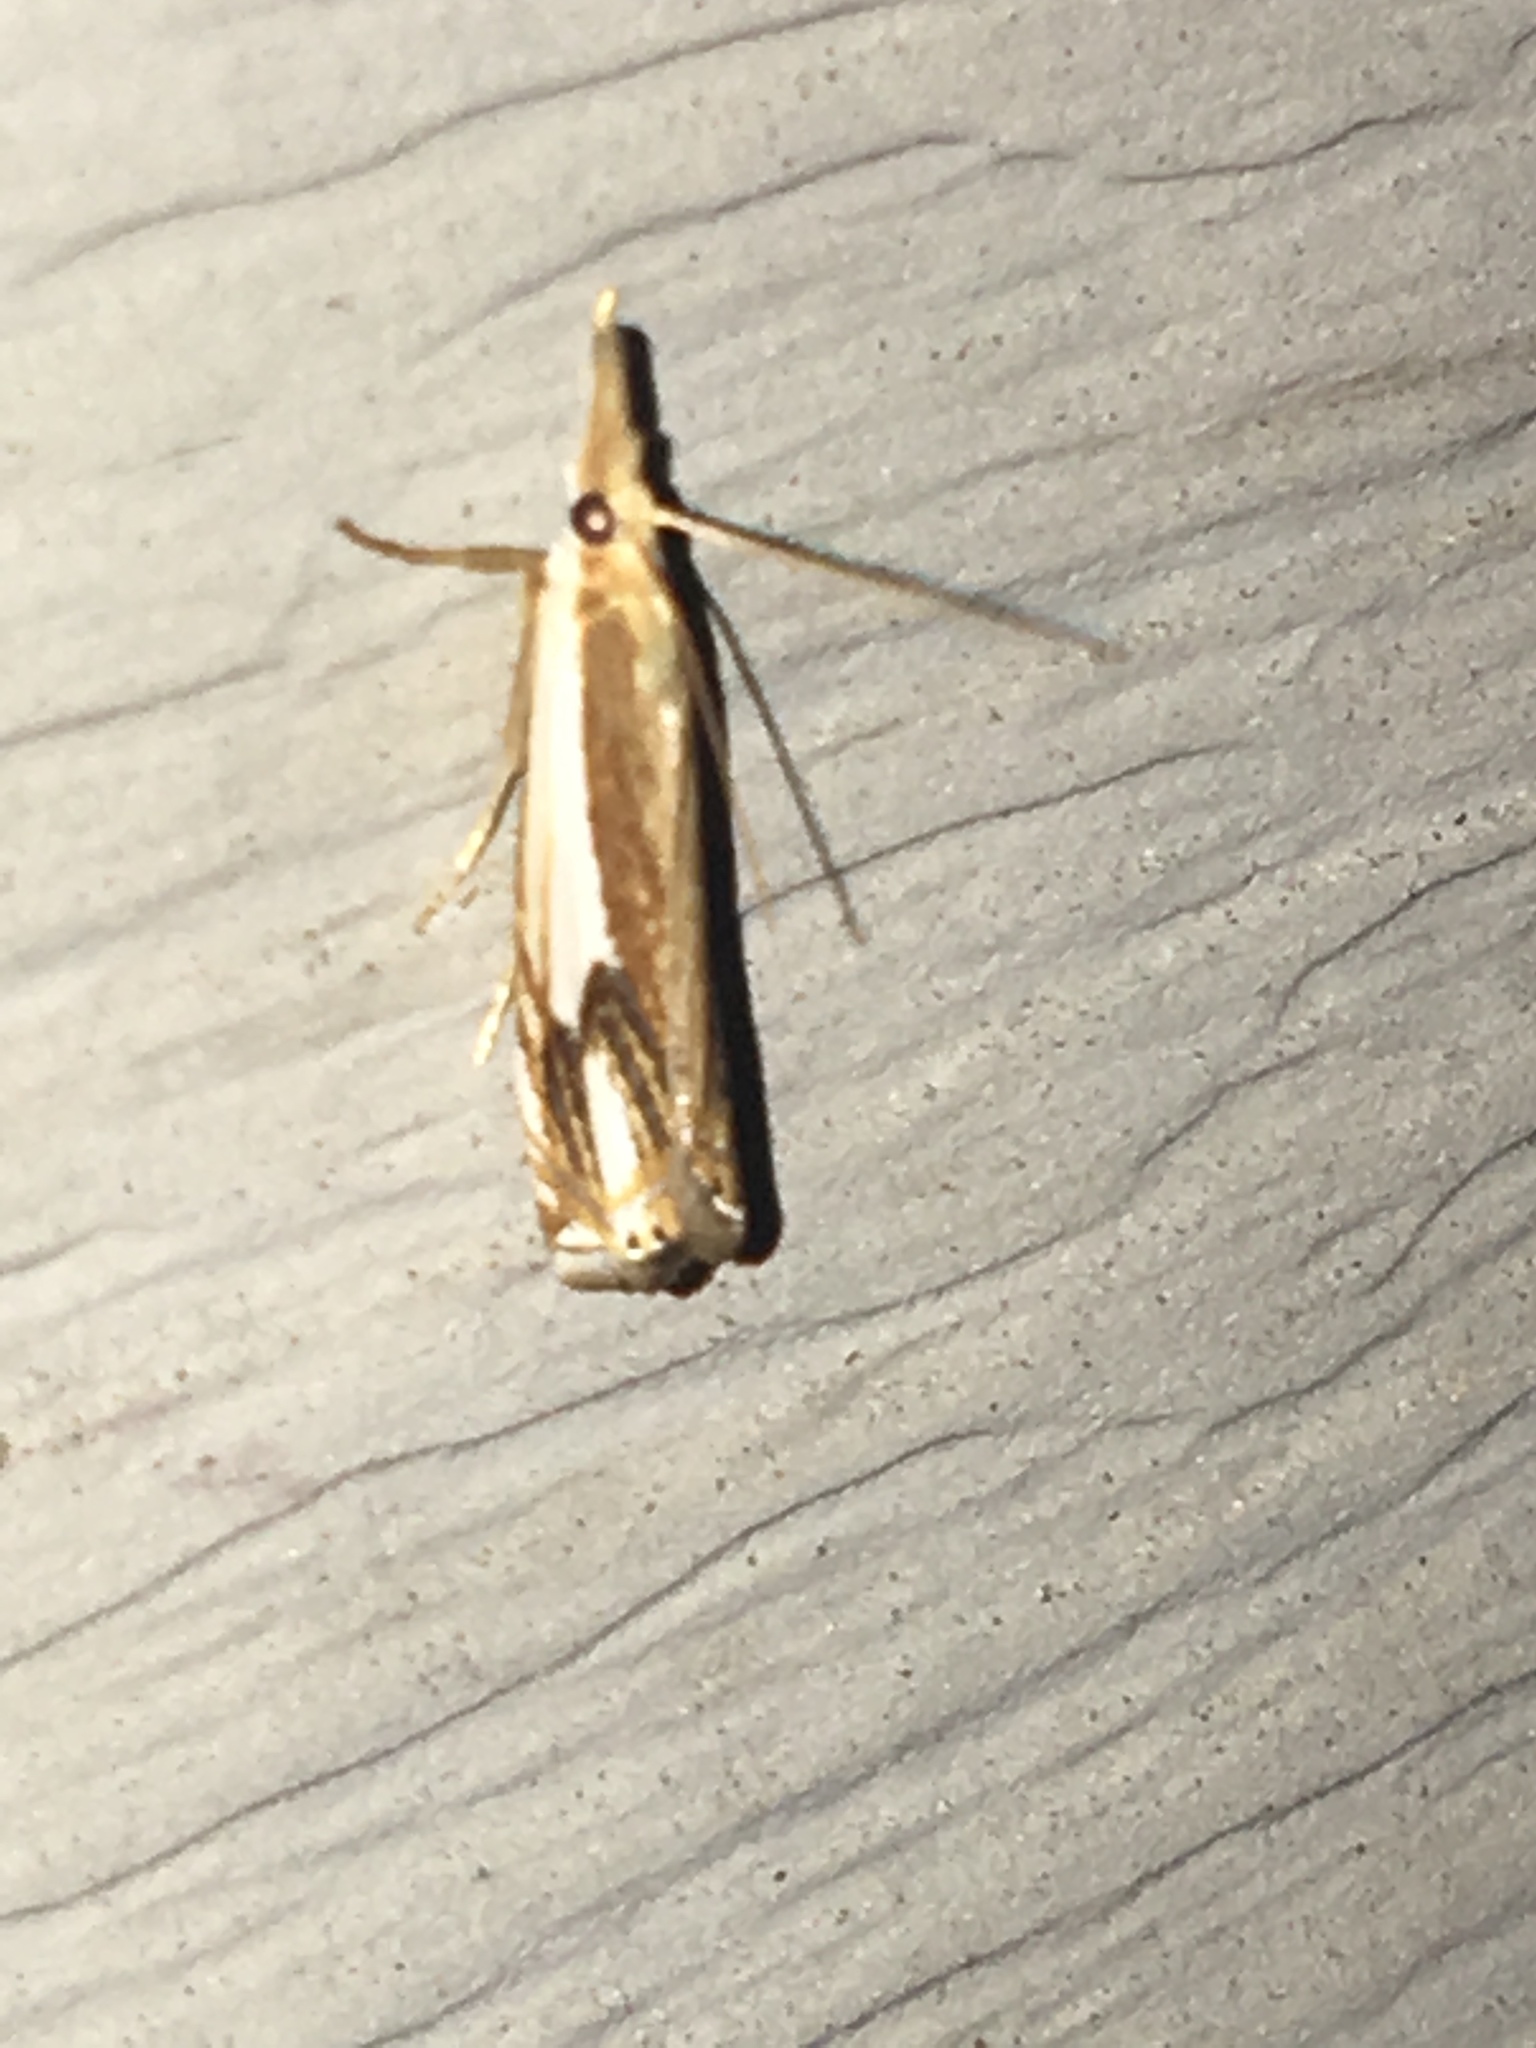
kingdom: Animalia
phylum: Arthropoda
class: Insecta
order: Lepidoptera
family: Crambidae
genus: Crambus
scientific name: Crambus agitatellus
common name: Double-banded grass-veneer
